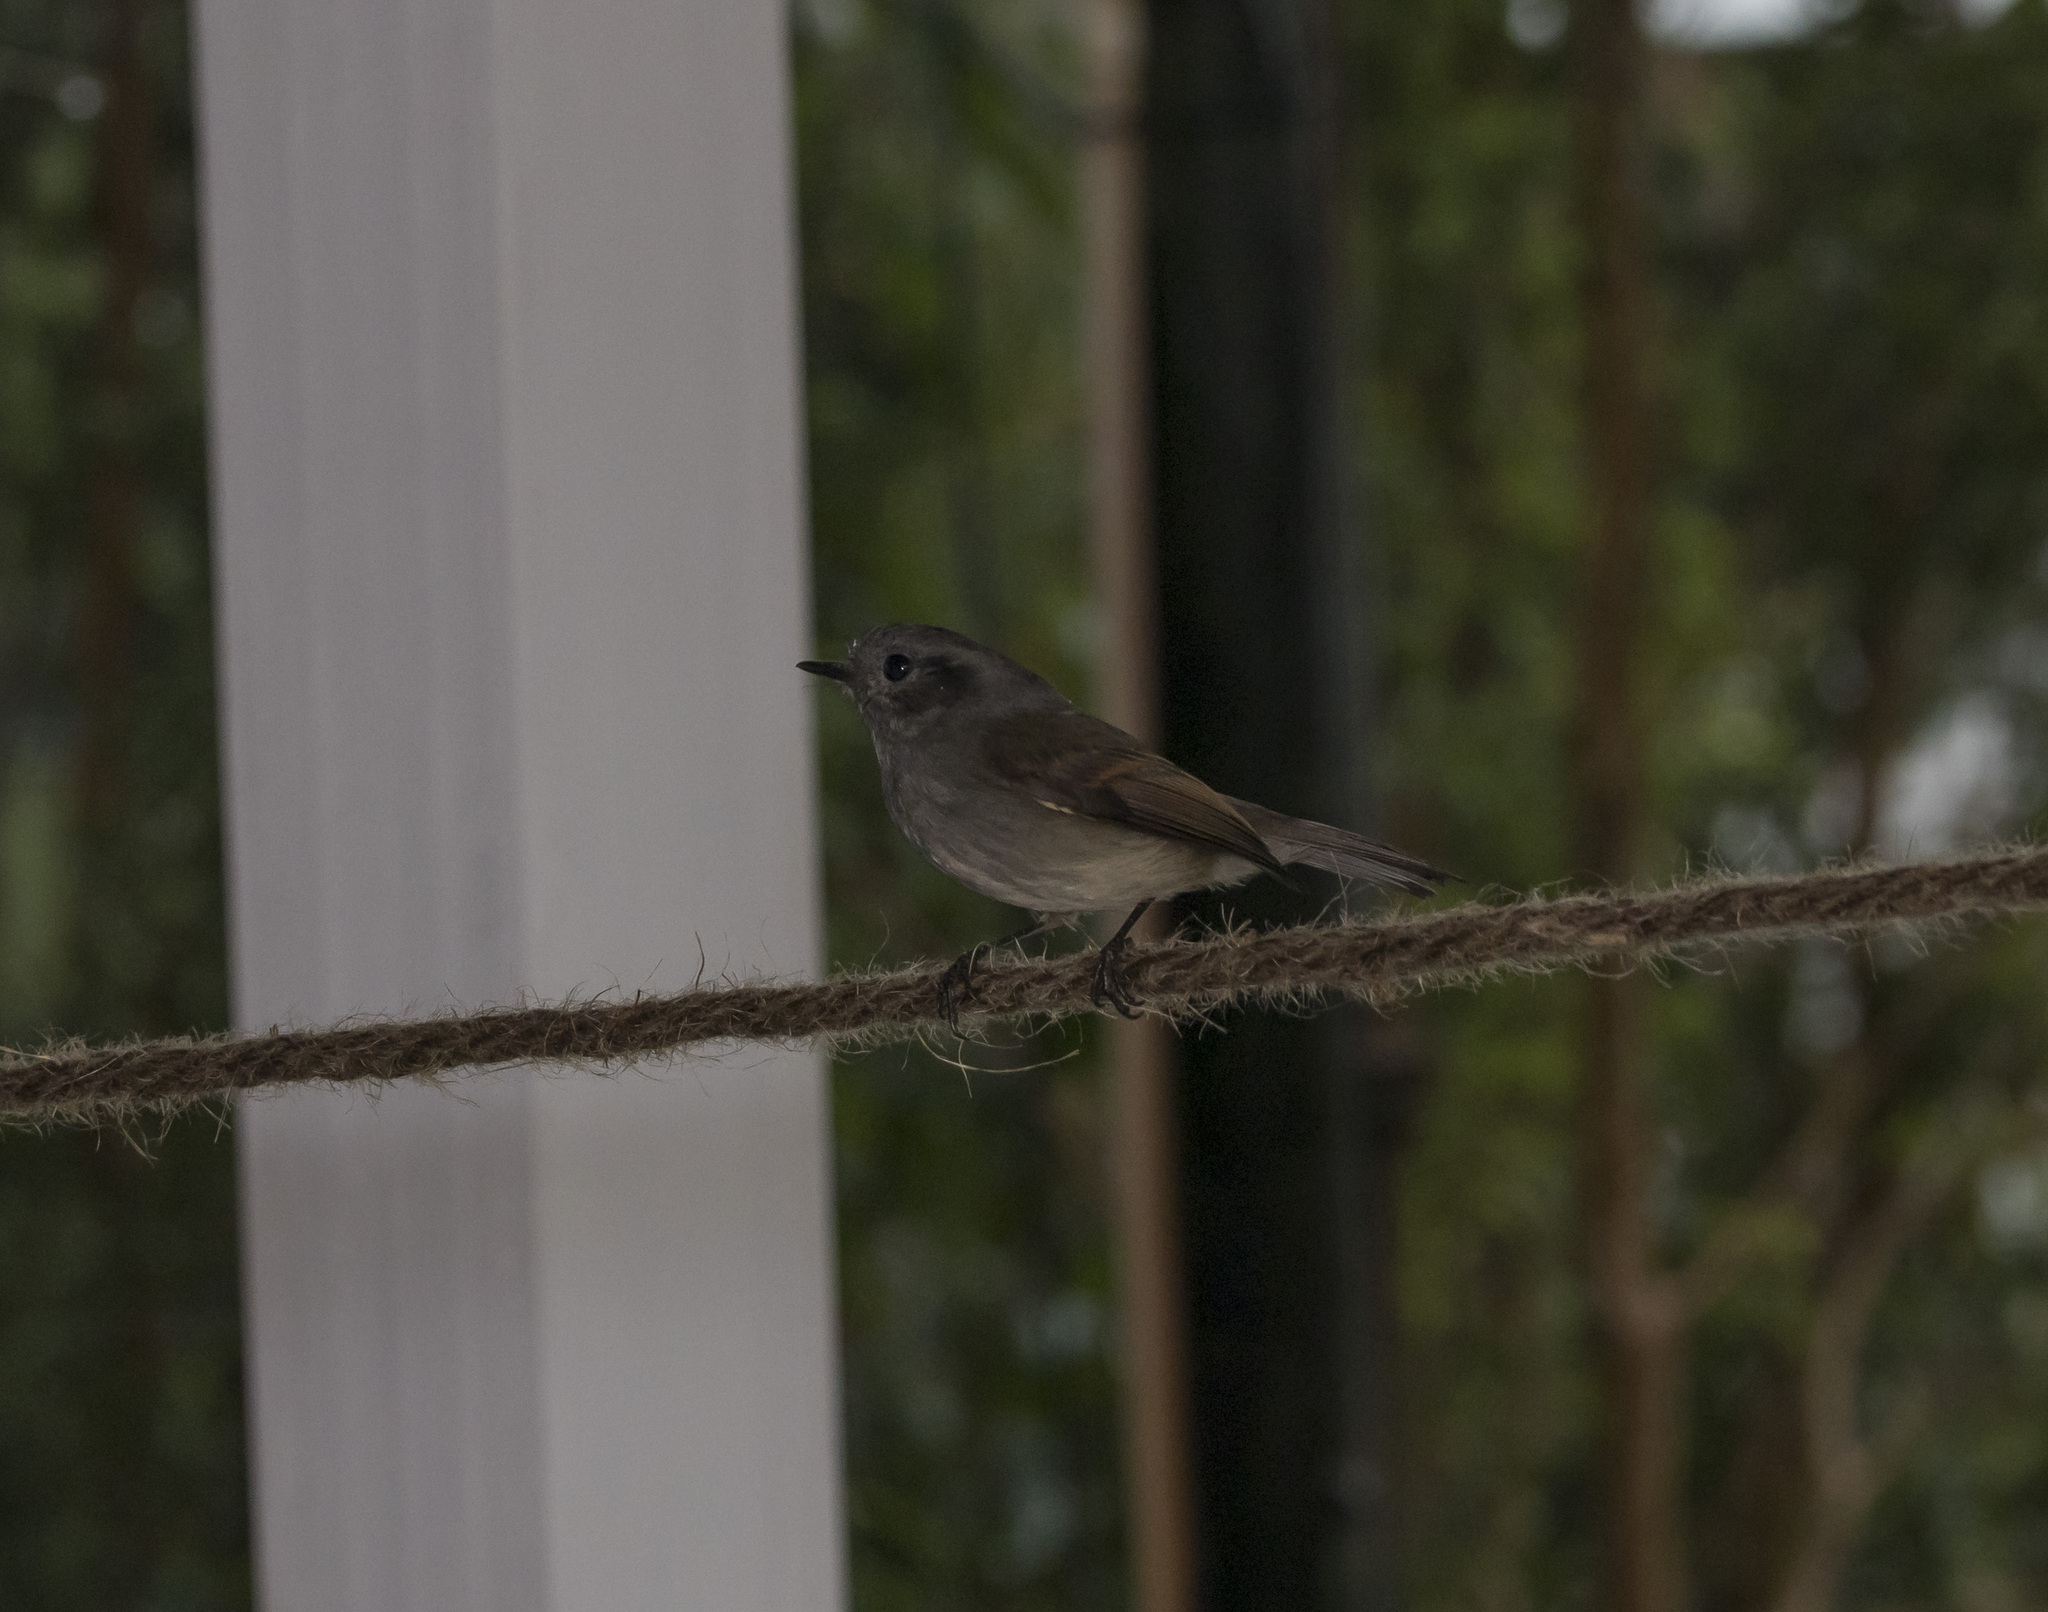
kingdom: Animalia
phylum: Chordata
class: Aves
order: Passeriformes
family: Tyrannidae
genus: Colorhamphus
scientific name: Colorhamphus parvirostris
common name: Patagonian tyrant
